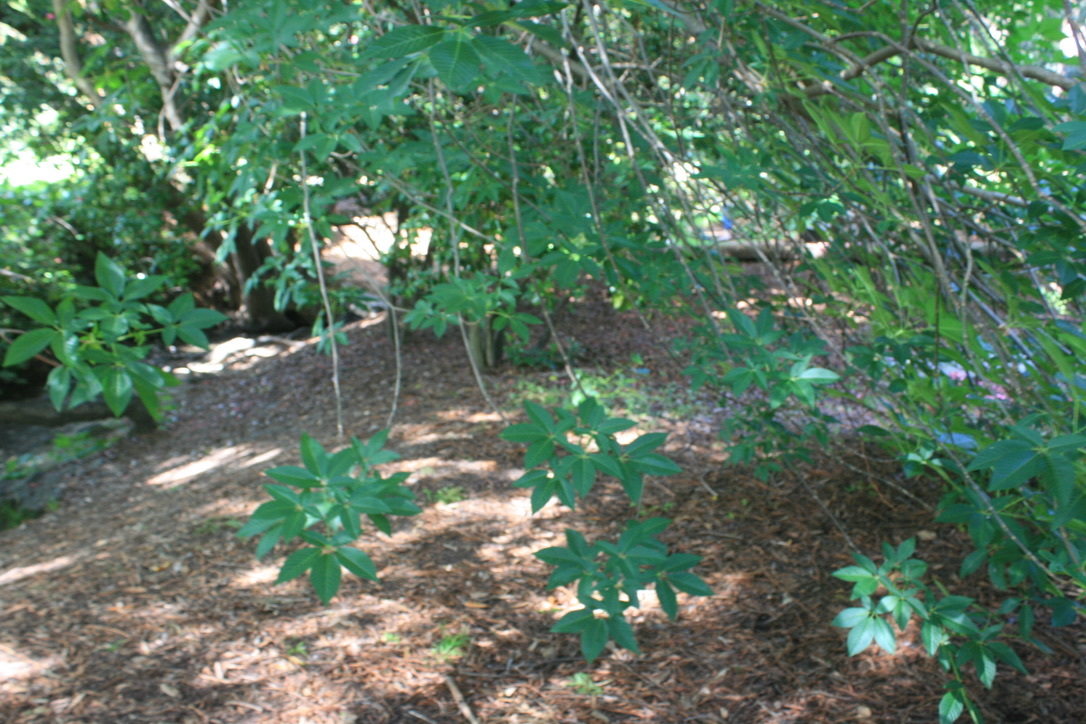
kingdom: Plantae
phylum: Tracheophyta
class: Magnoliopsida
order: Sapindales
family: Sapindaceae
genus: Aesculus
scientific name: Aesculus californica
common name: California buckeye
